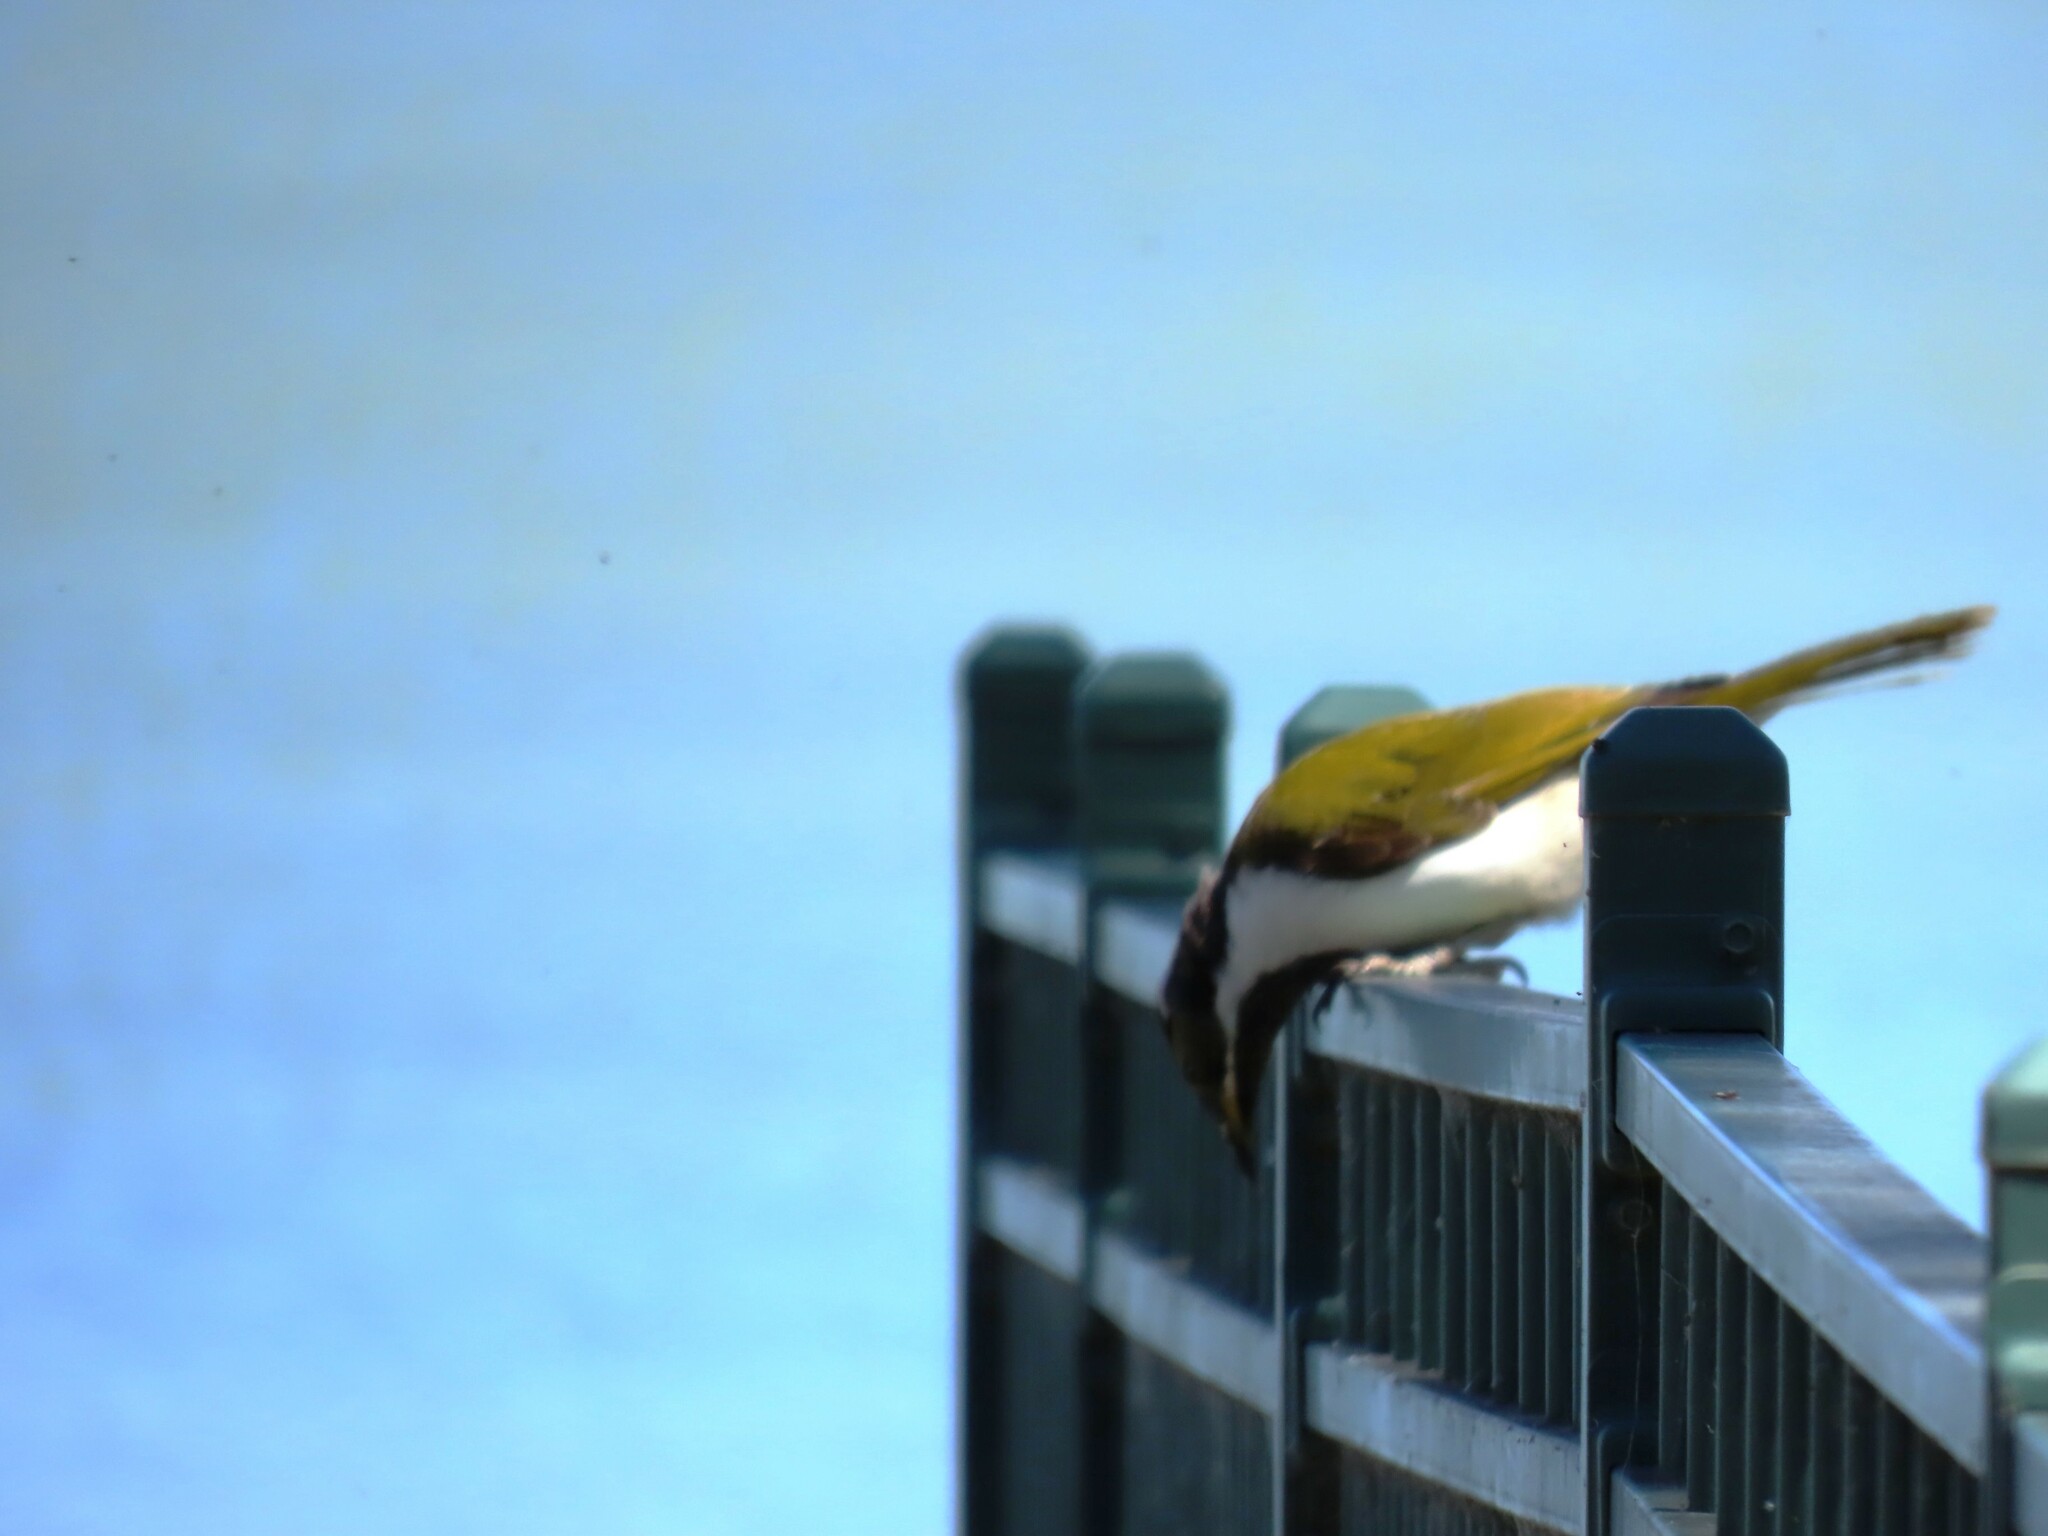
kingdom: Animalia
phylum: Chordata
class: Aves
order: Passeriformes
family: Meliphagidae
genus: Entomyzon
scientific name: Entomyzon cyanotis
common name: Blue-faced honeyeater
